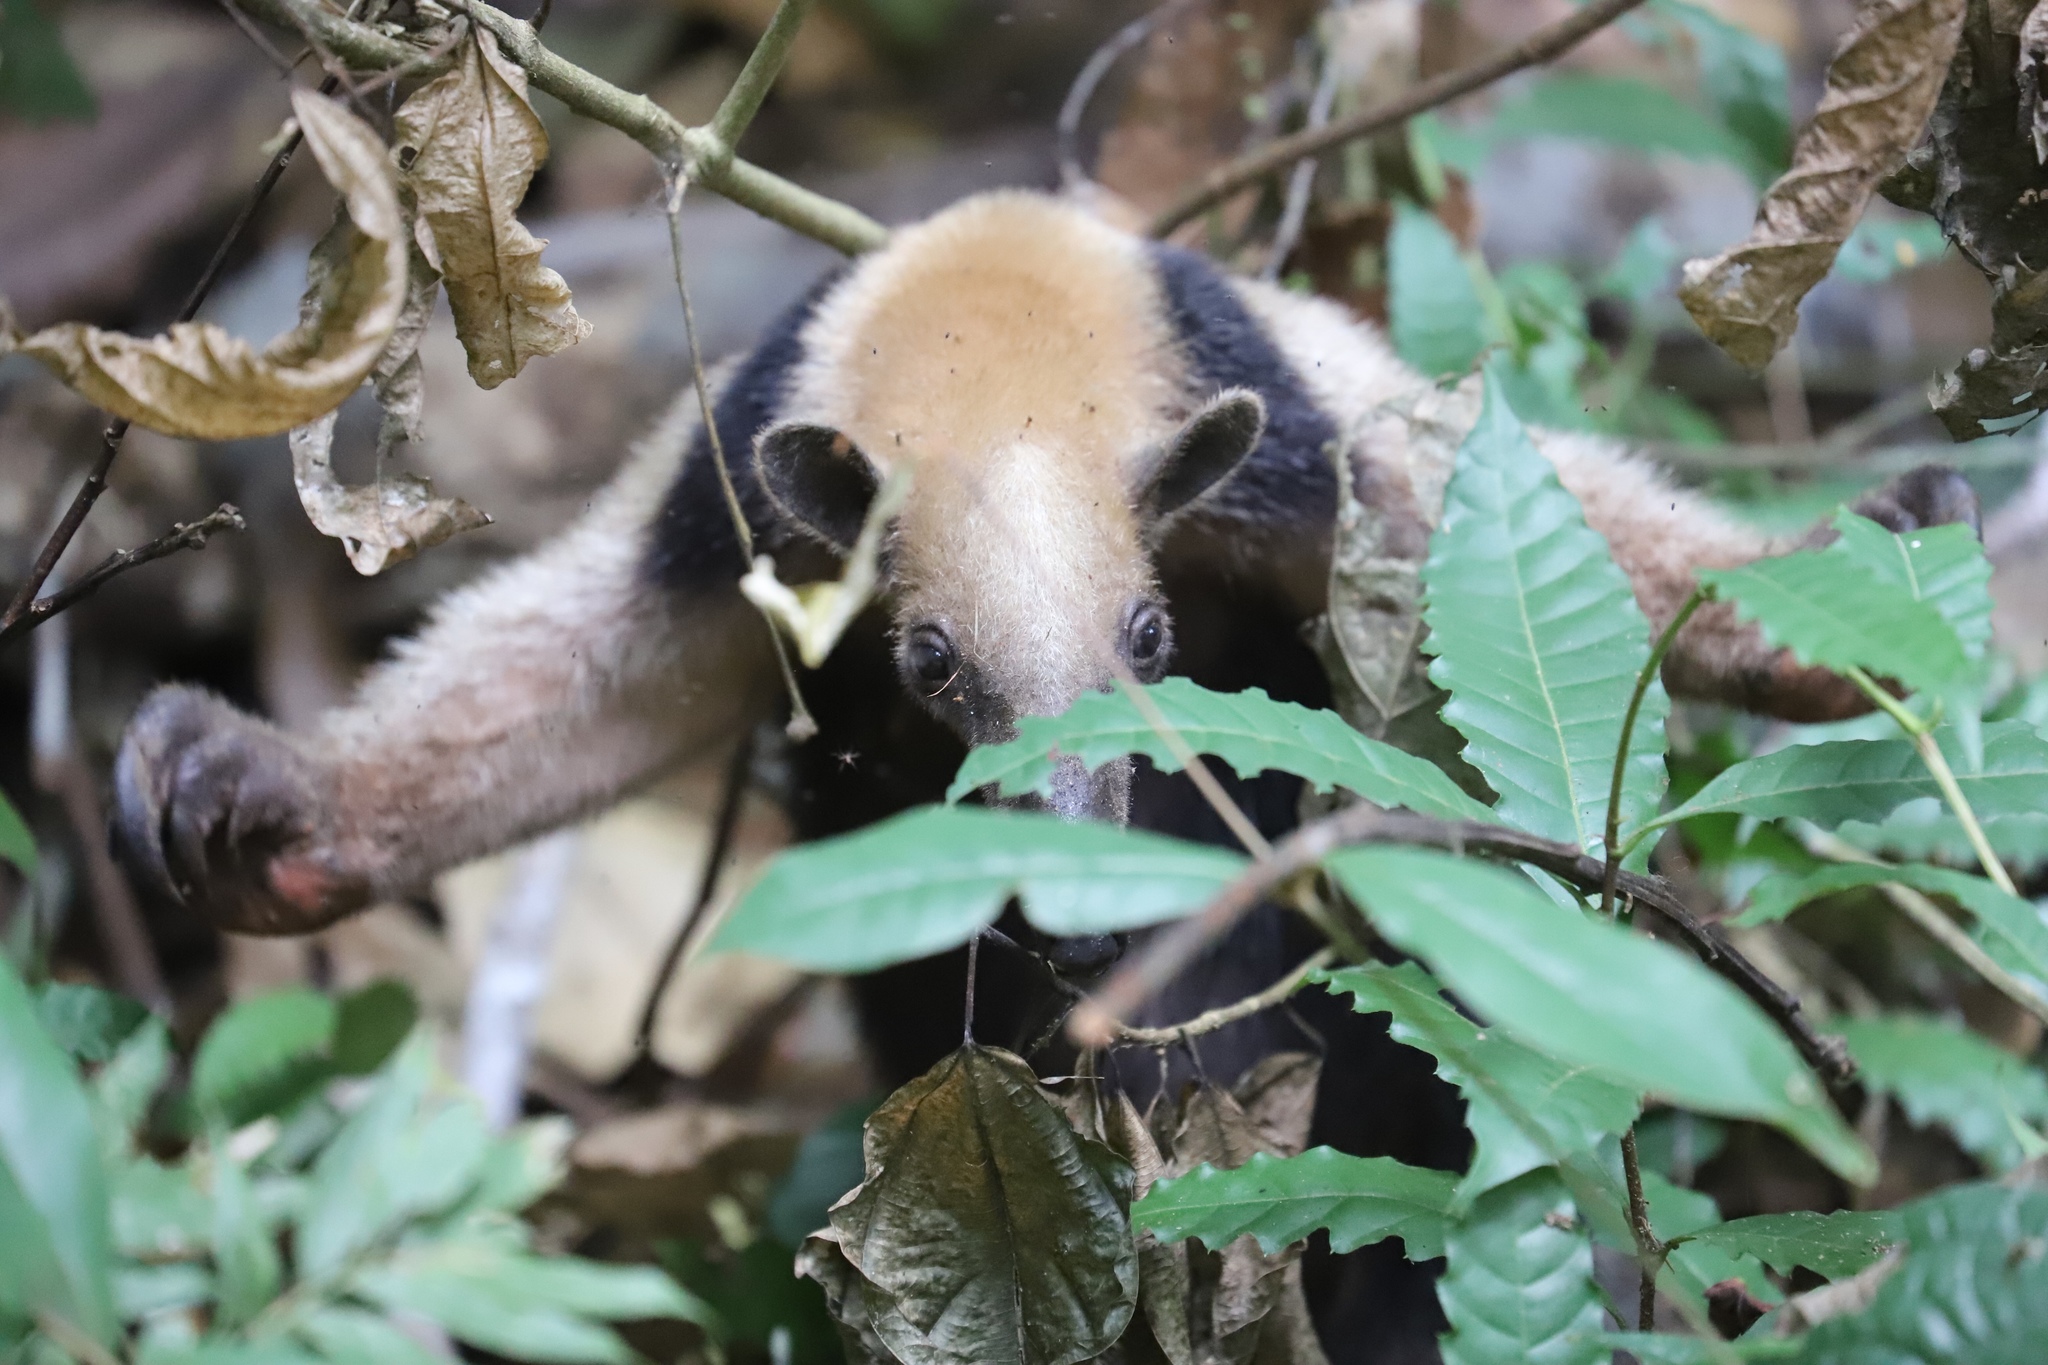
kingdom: Animalia
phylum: Chordata
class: Mammalia
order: Pilosa
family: Myrmecophagidae
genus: Tamandua
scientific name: Tamandua mexicana
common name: Northern tamandua
